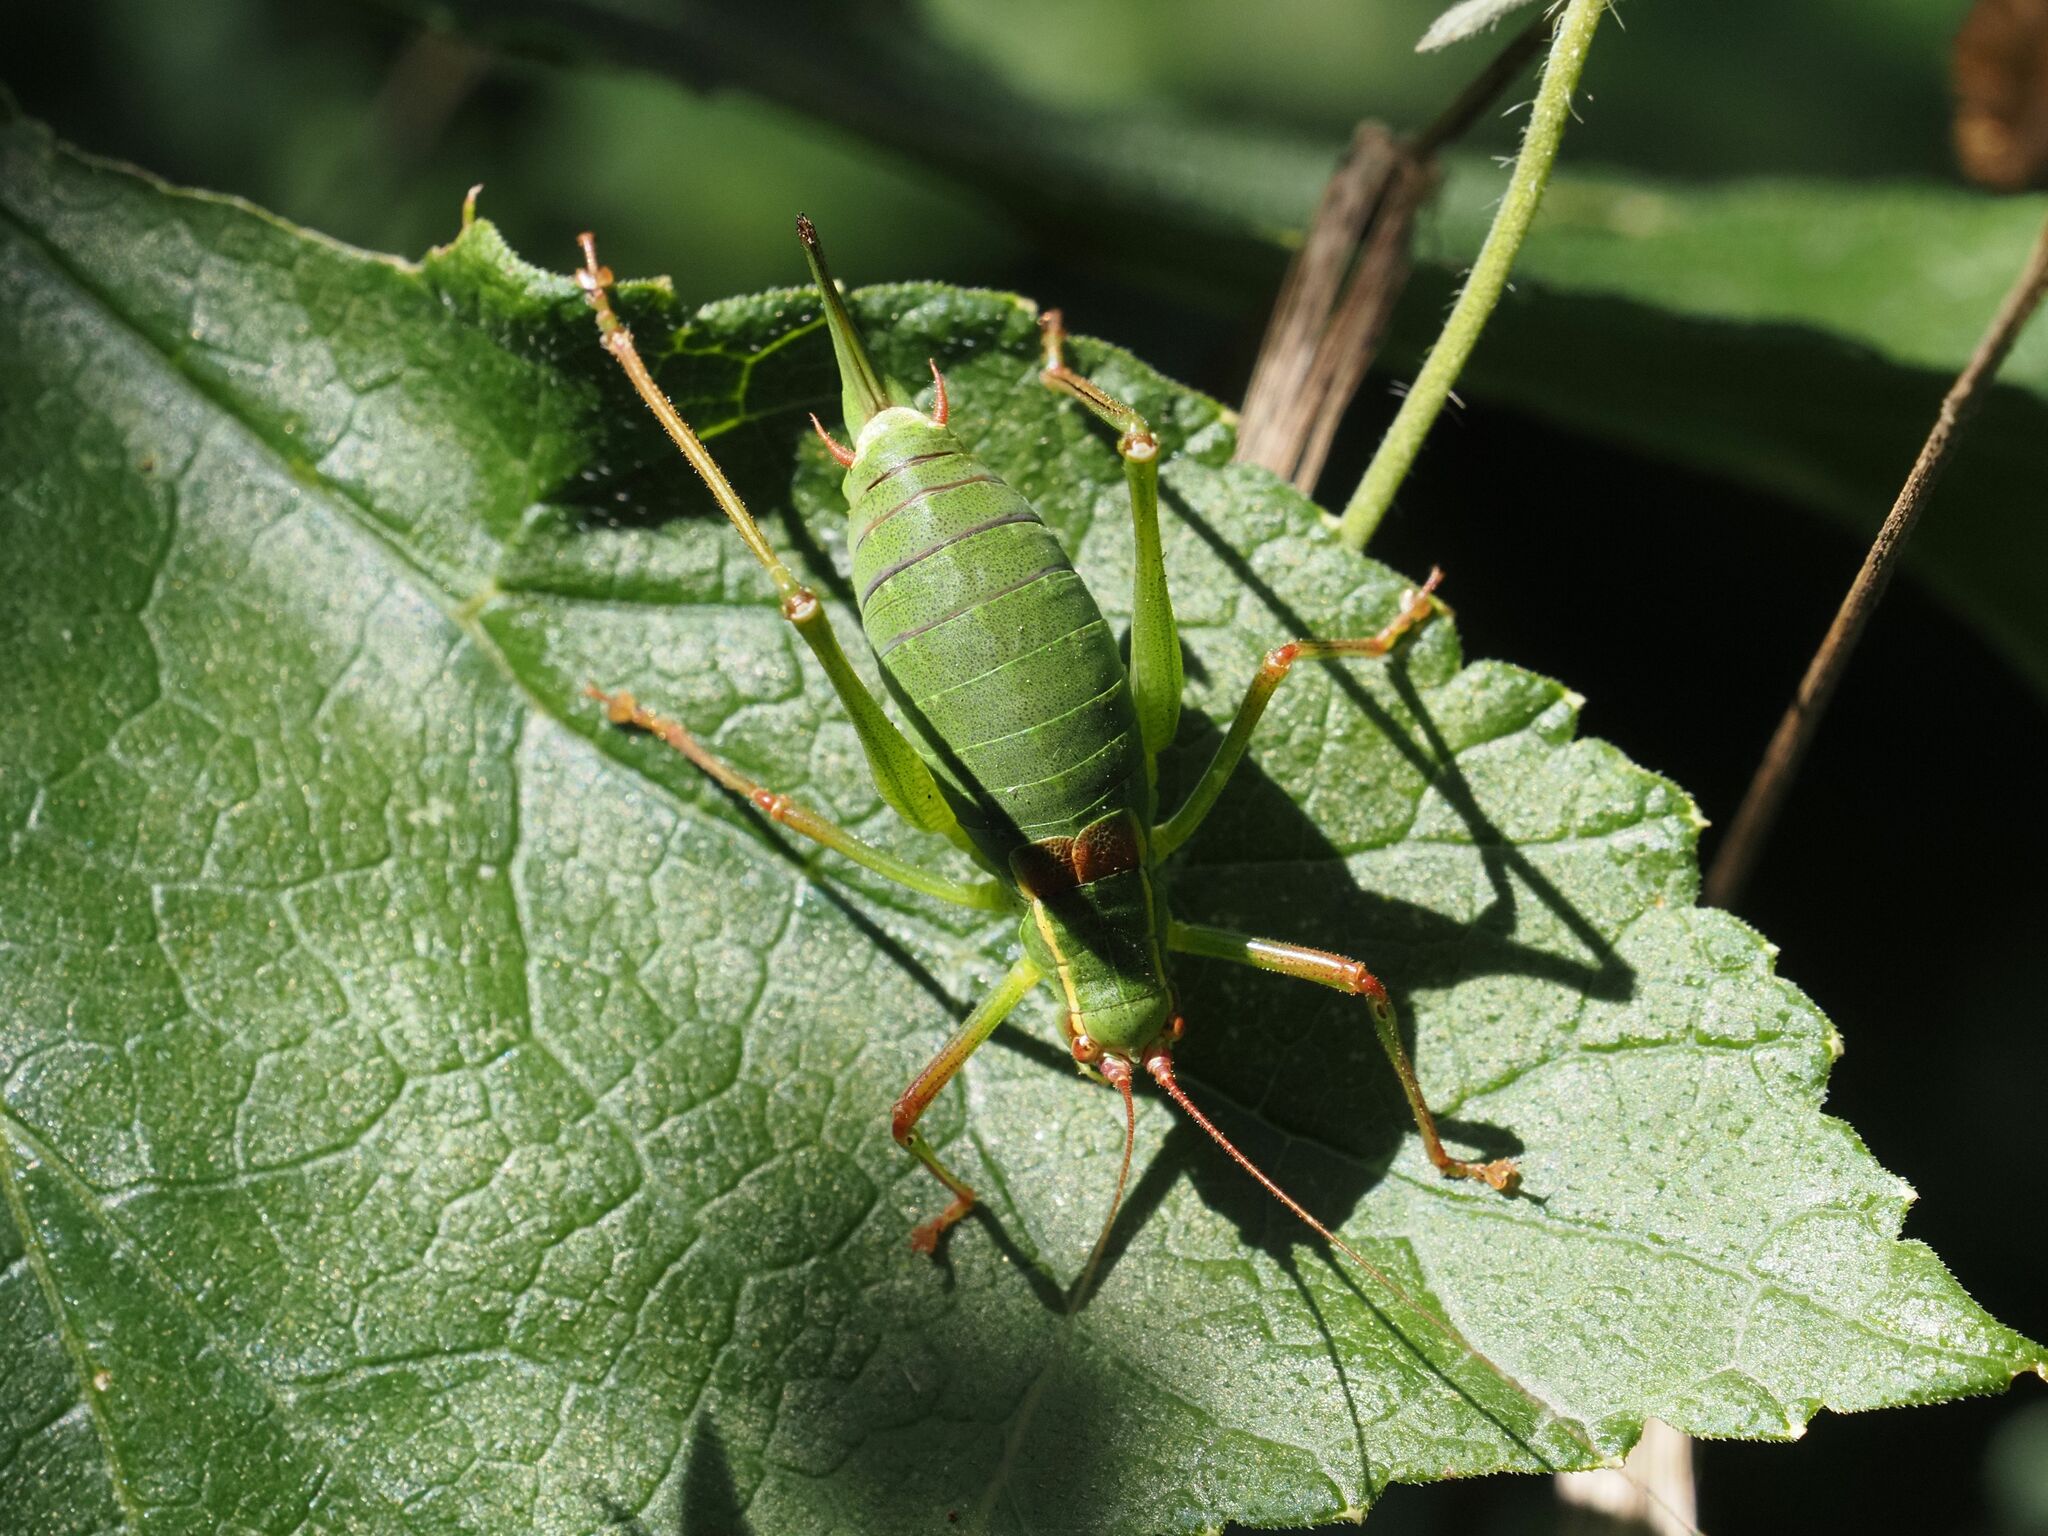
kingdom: Animalia
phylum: Arthropoda
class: Insecta
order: Orthoptera
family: Tettigoniidae
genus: Barbitistes
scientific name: Barbitistes serricauda
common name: Saw-tailed bush-cricket
